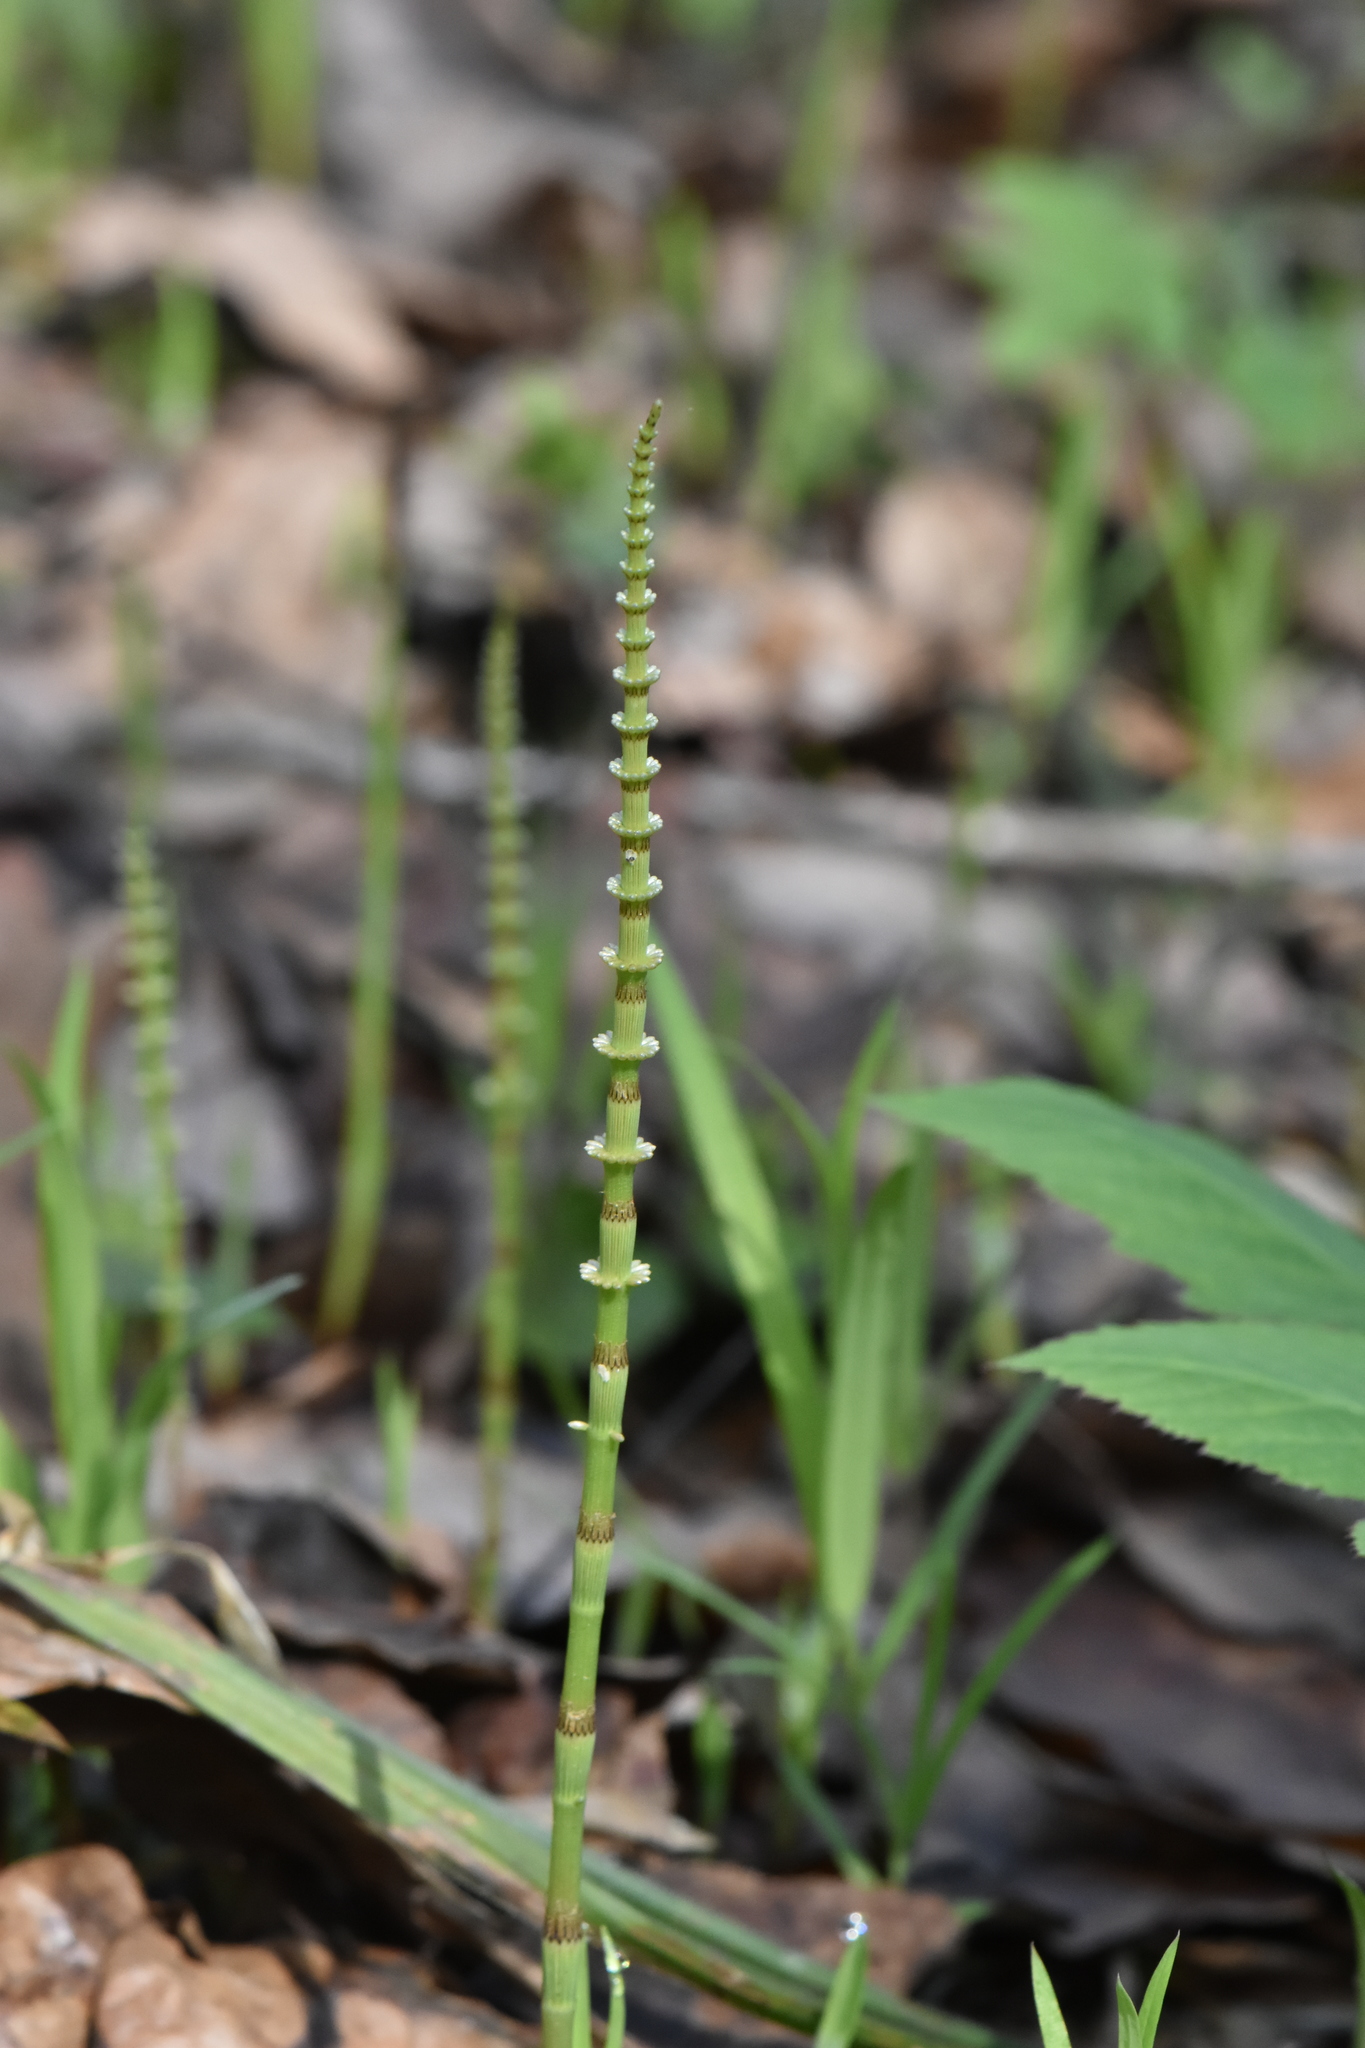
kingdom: Plantae
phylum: Tracheophyta
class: Polypodiopsida
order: Equisetales
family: Equisetaceae
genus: Equisetum
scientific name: Equisetum pratense
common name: Meadow horsetail
